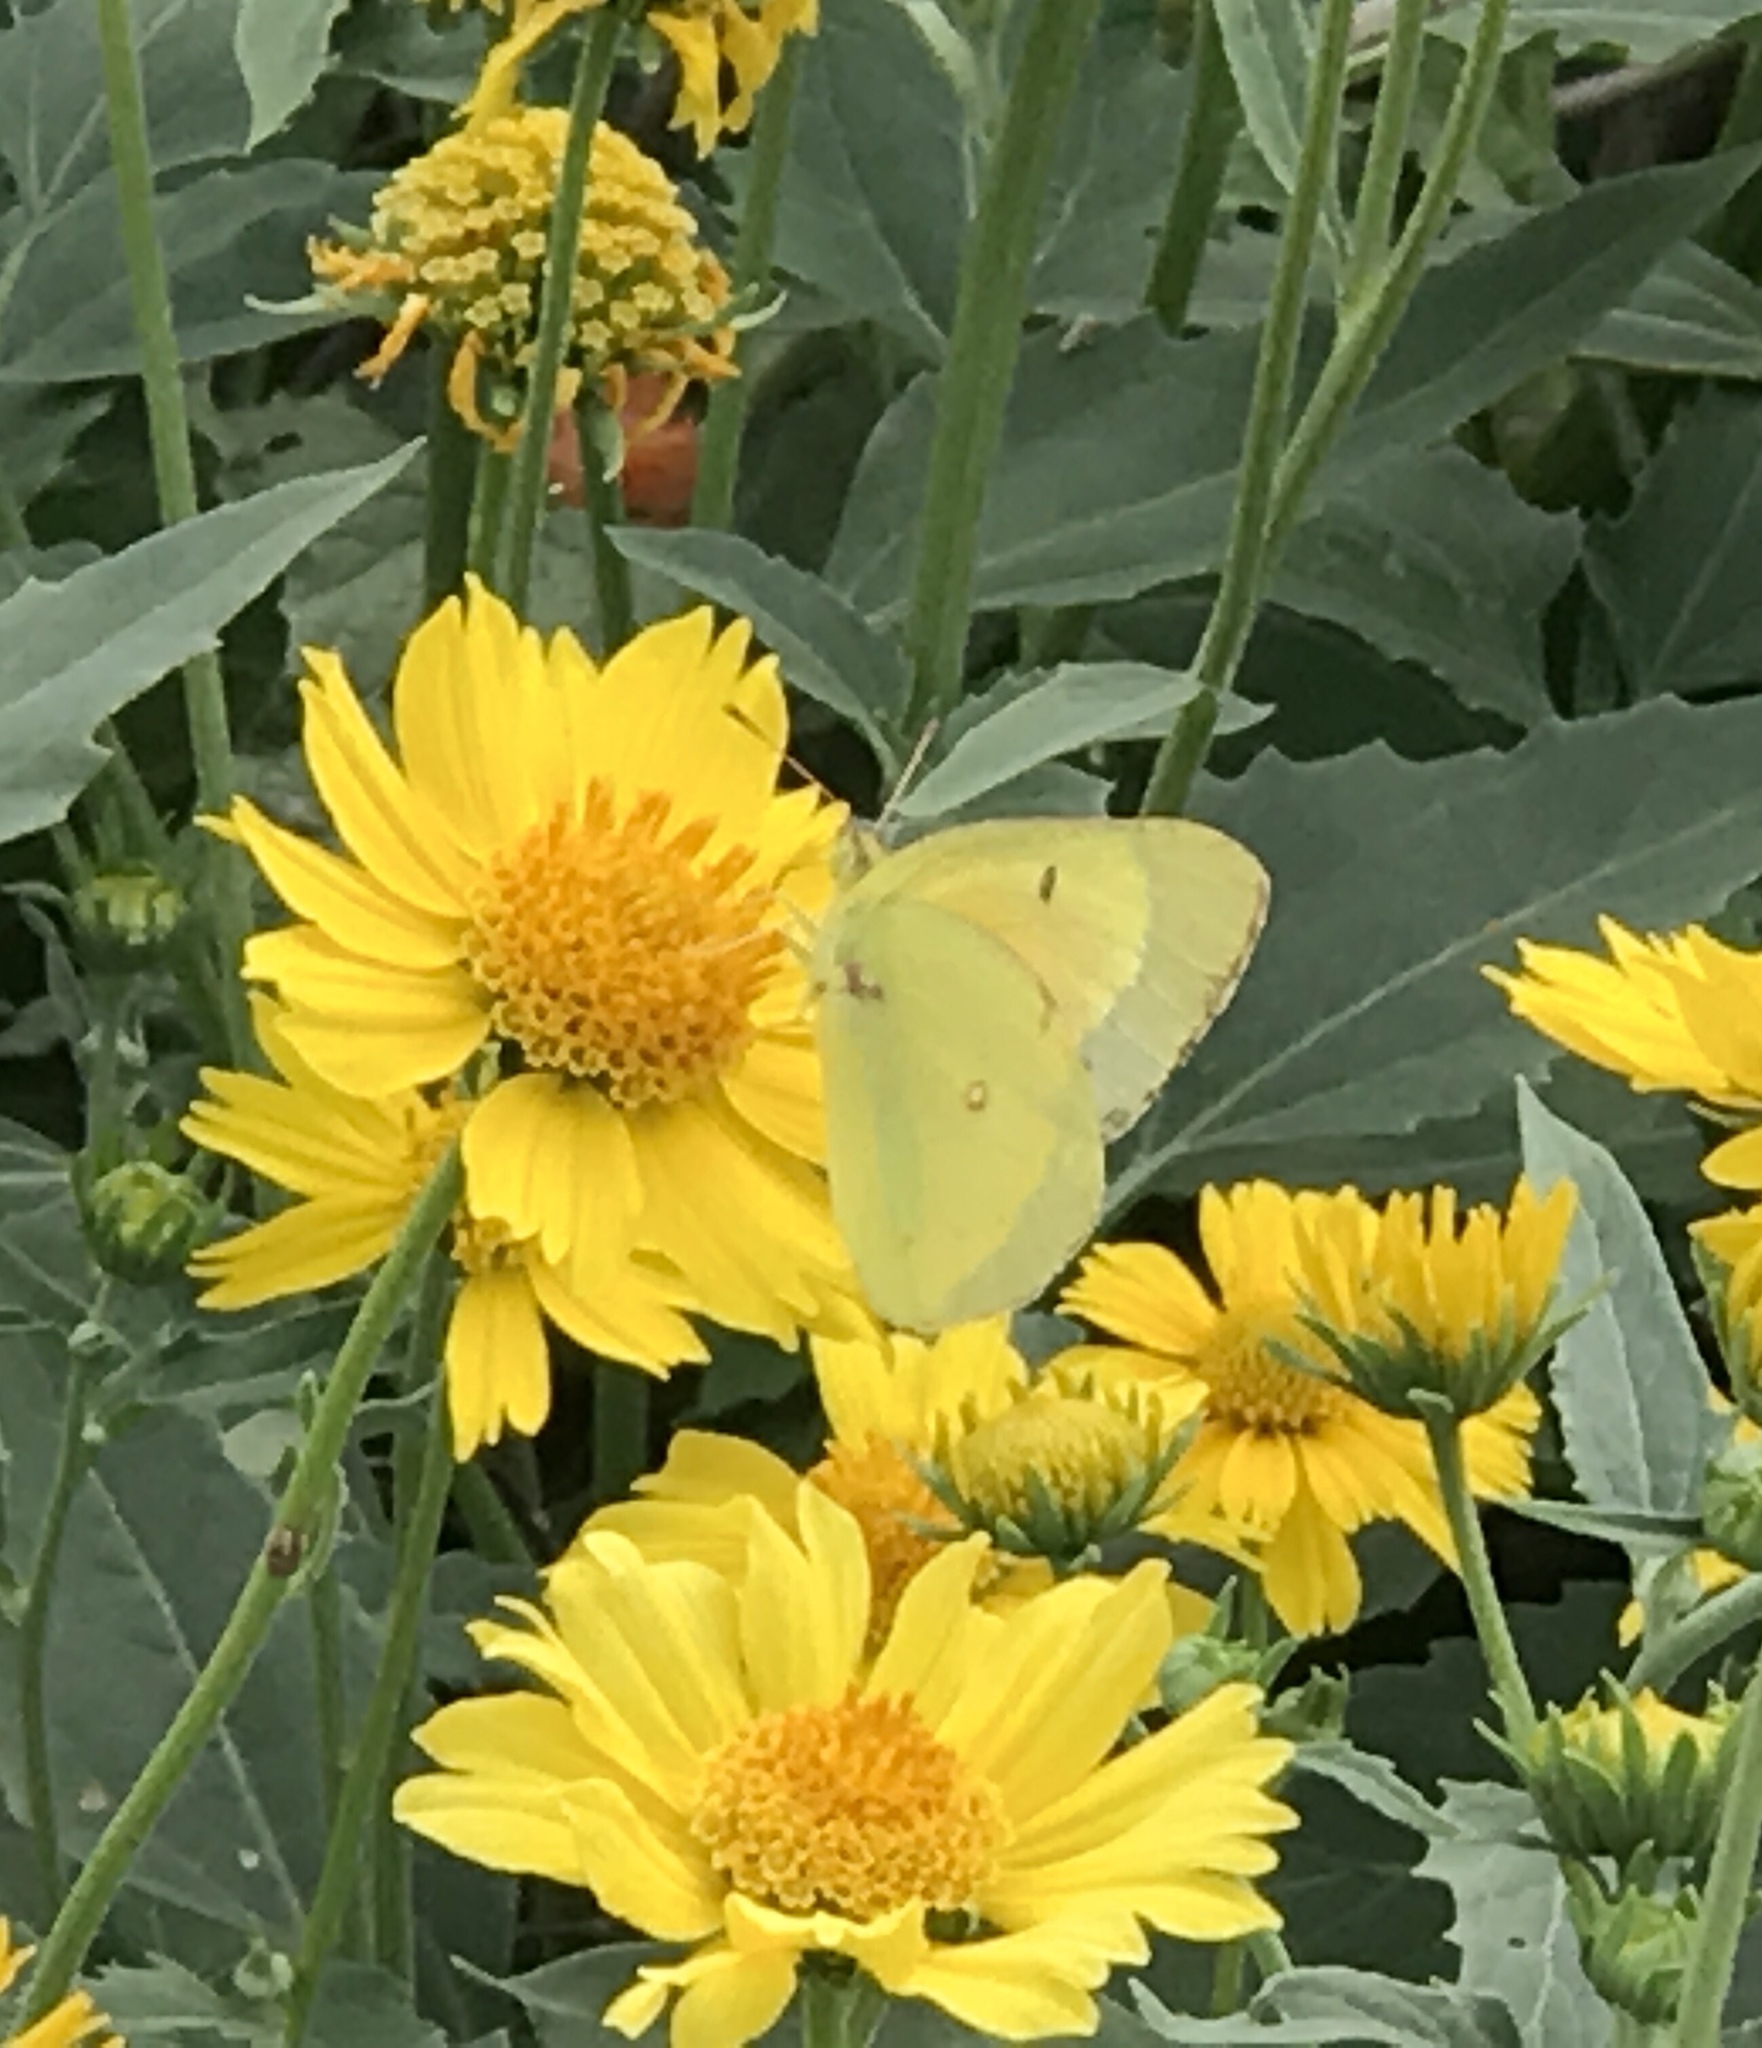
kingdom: Animalia
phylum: Arthropoda
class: Insecta
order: Lepidoptera
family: Pieridae
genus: Colias
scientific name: Colias eurytheme
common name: Alfalfa butterfly
